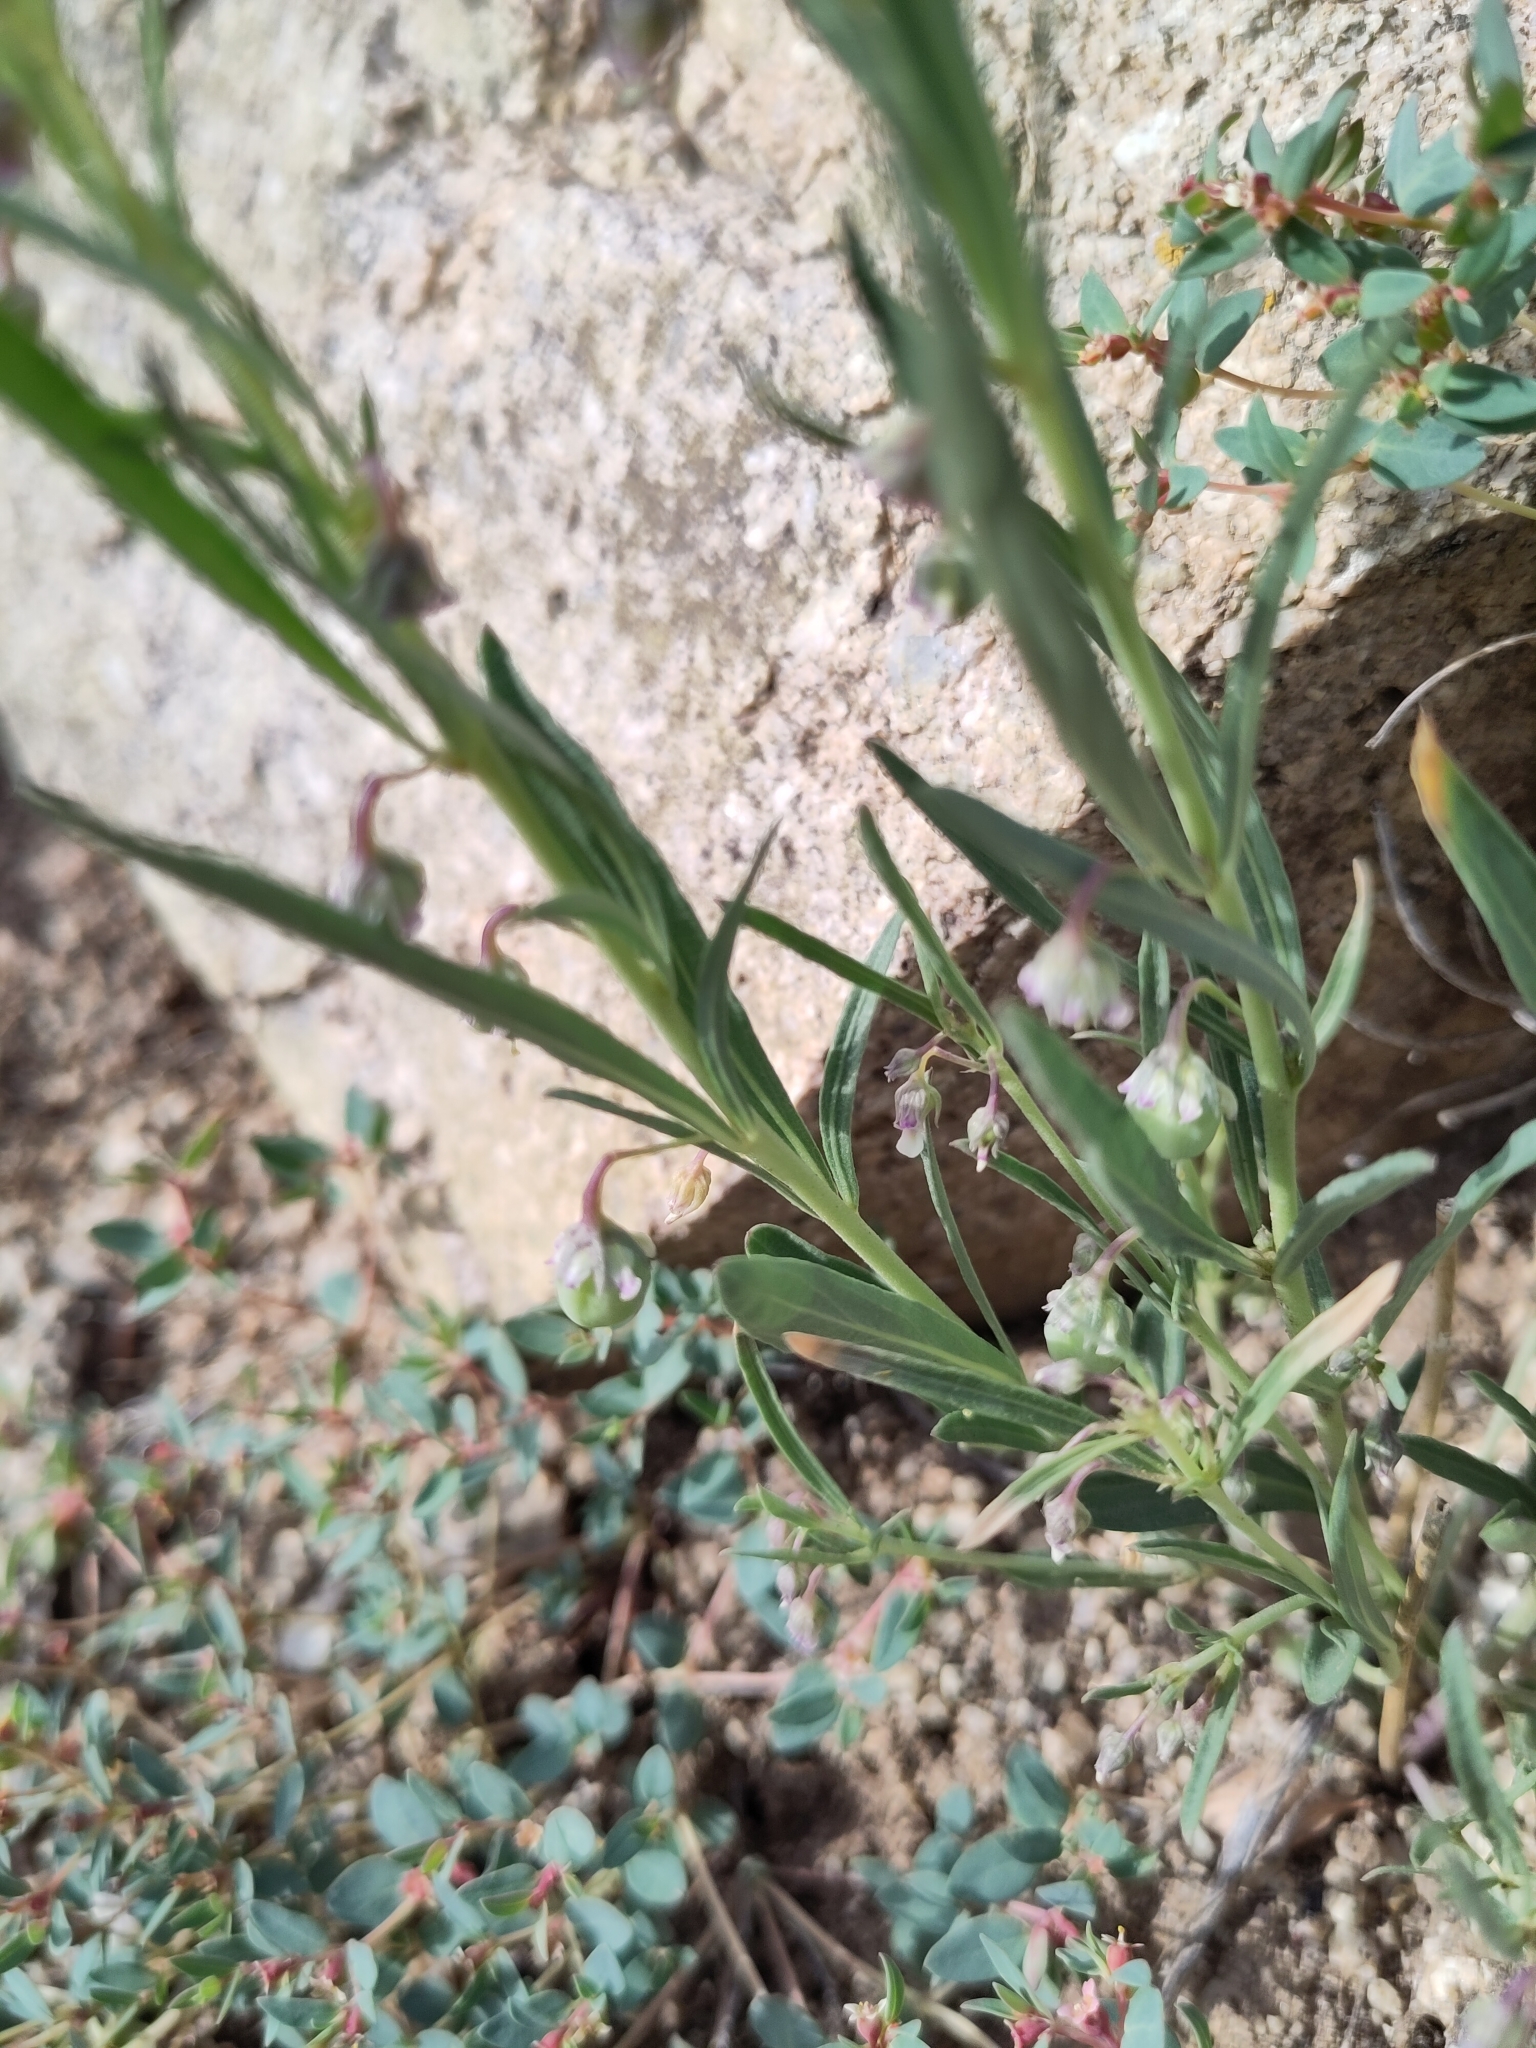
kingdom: Plantae
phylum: Tracheophyta
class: Magnoliopsida
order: Malpighiales
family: Violaceae
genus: Pombalia
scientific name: Pombalia verticillata
